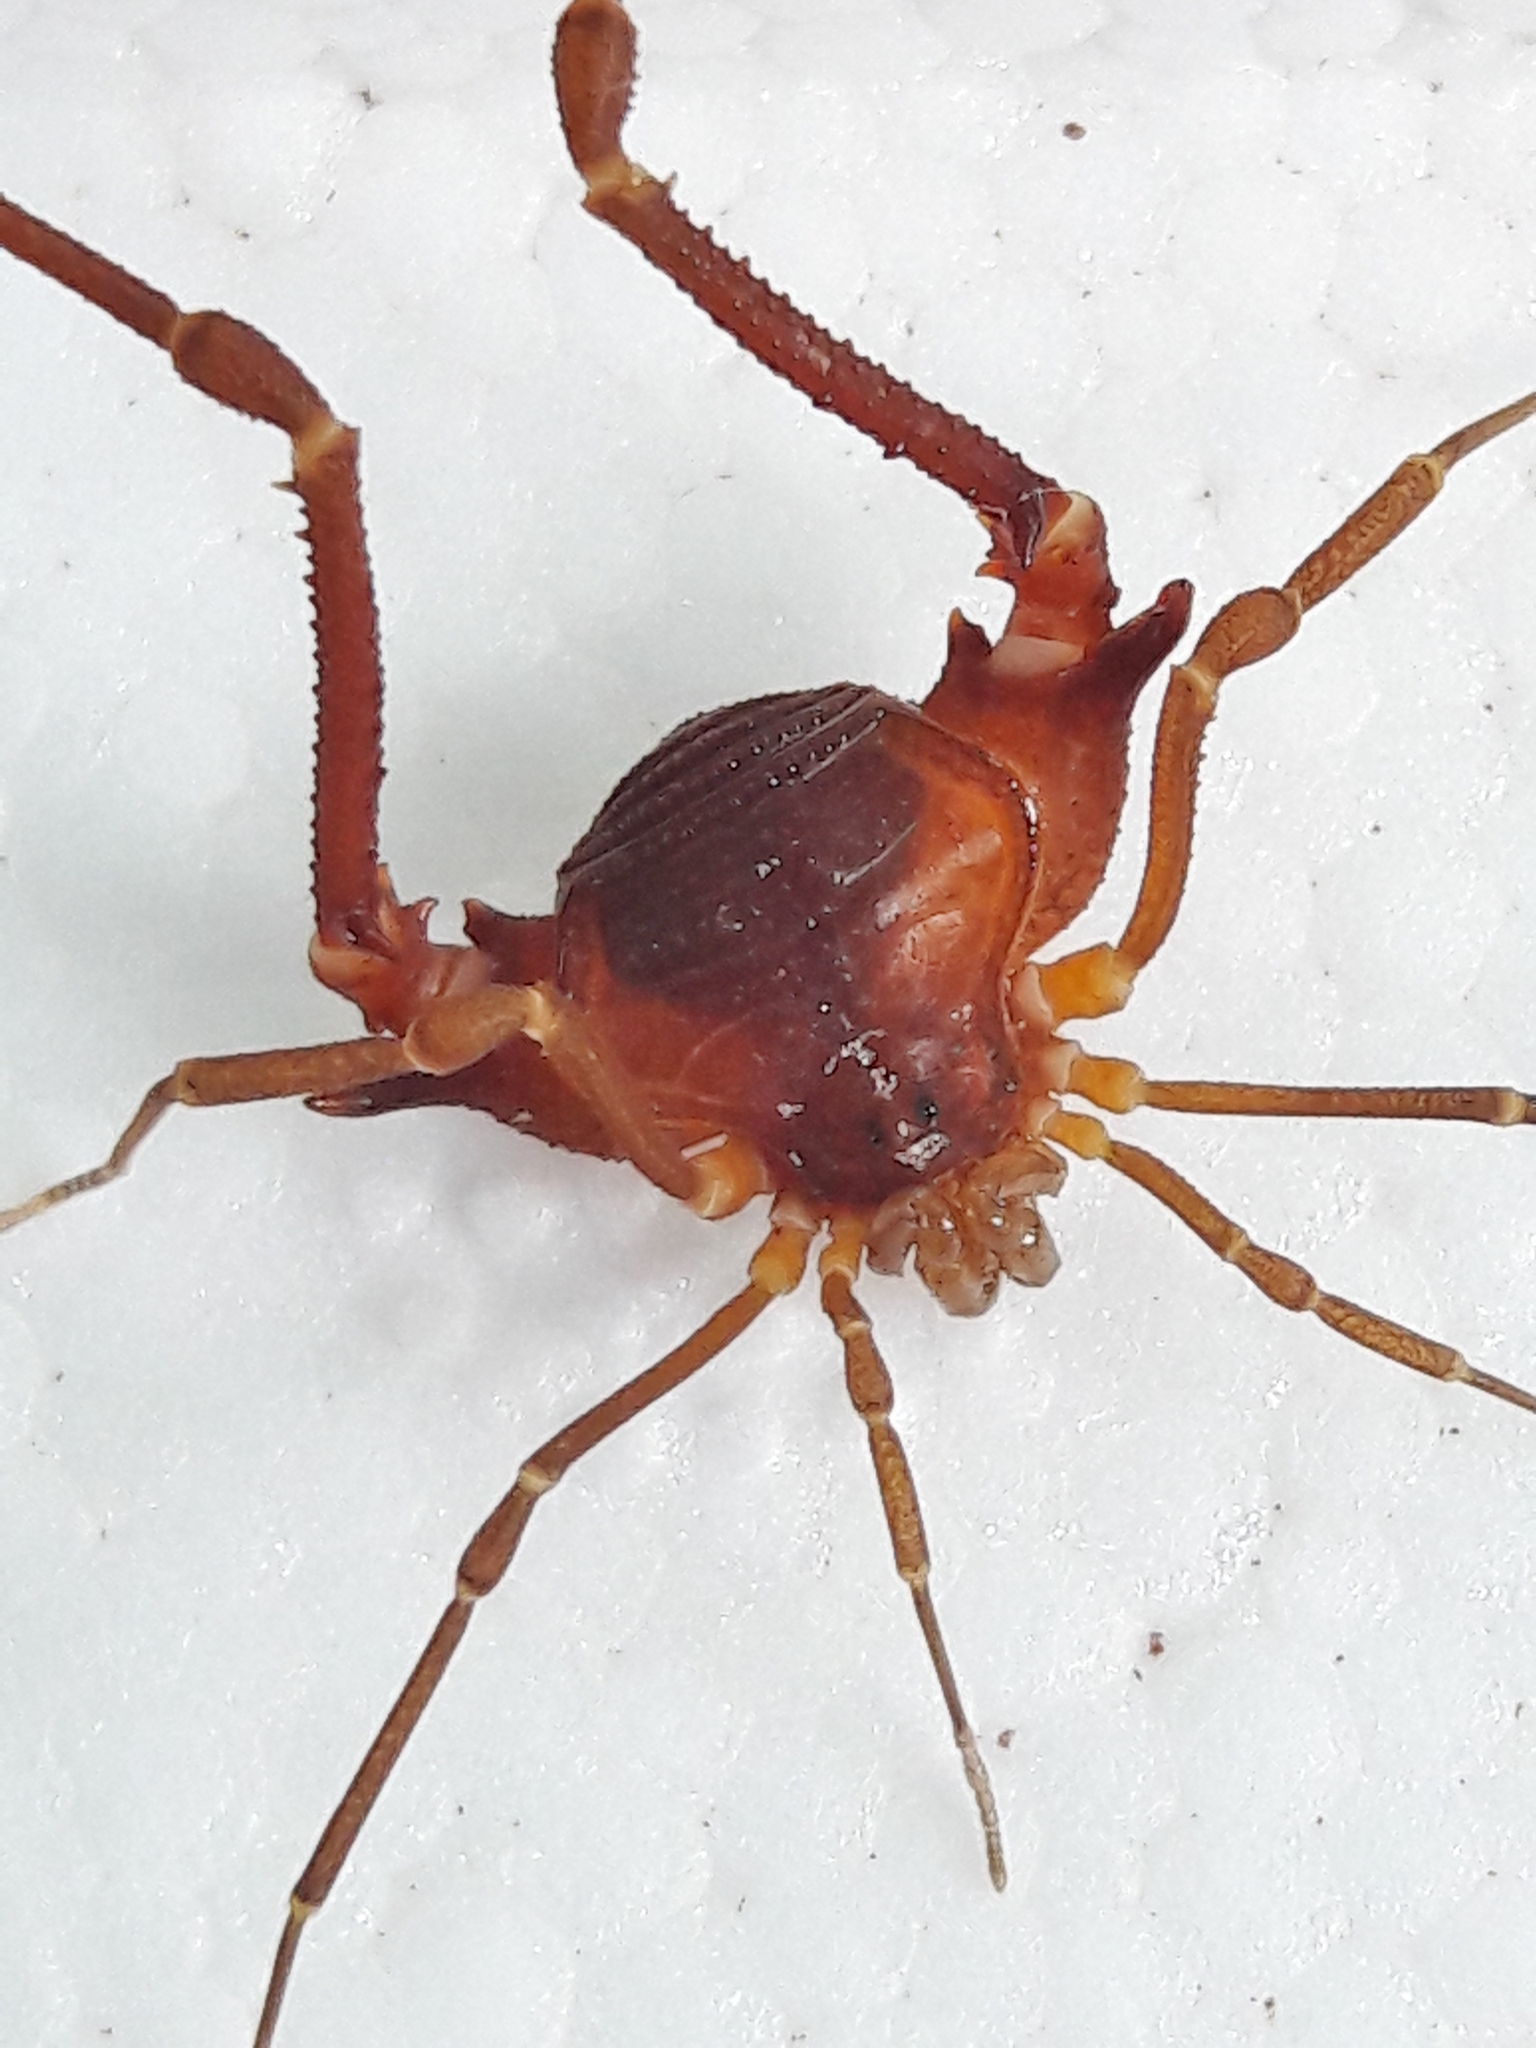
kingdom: Animalia
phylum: Arthropoda
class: Arachnida
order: Opiliones
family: Gonyleptidae
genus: Krateromaspis
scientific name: Krateromaspis dilatata
